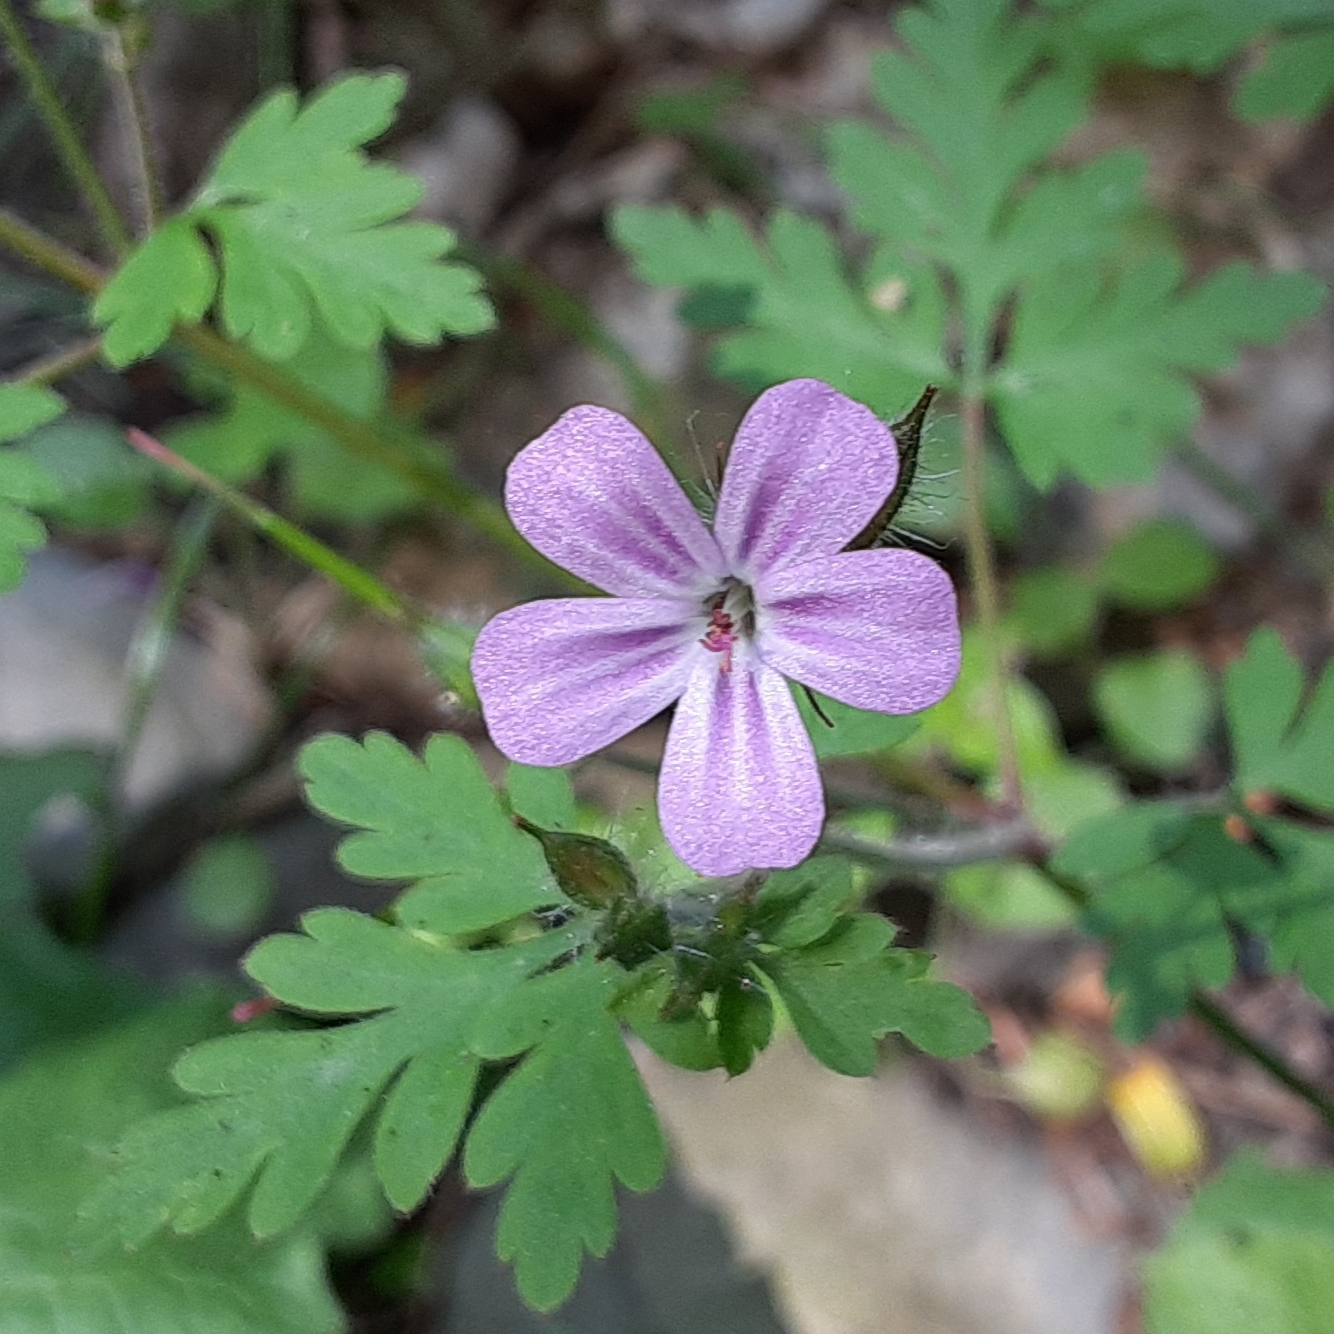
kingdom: Plantae
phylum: Tracheophyta
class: Magnoliopsida
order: Geraniales
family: Geraniaceae
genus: Geranium
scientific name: Geranium robertianum
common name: Herb-robert
